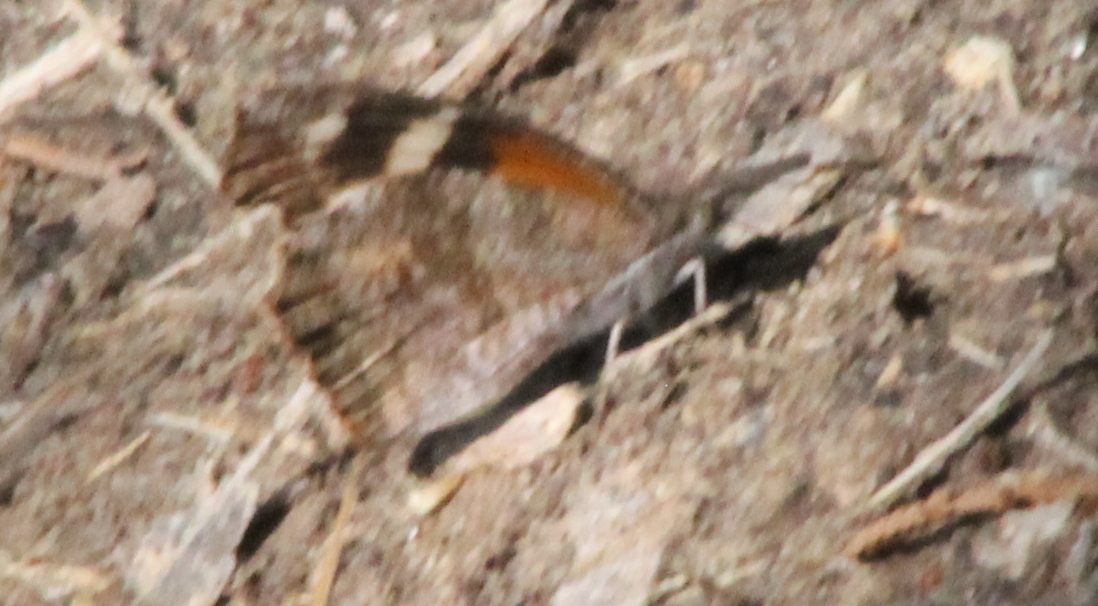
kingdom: Animalia
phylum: Arthropoda
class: Insecta
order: Lepidoptera
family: Nymphalidae
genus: Libytheana
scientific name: Libytheana carinenta
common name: American snout
